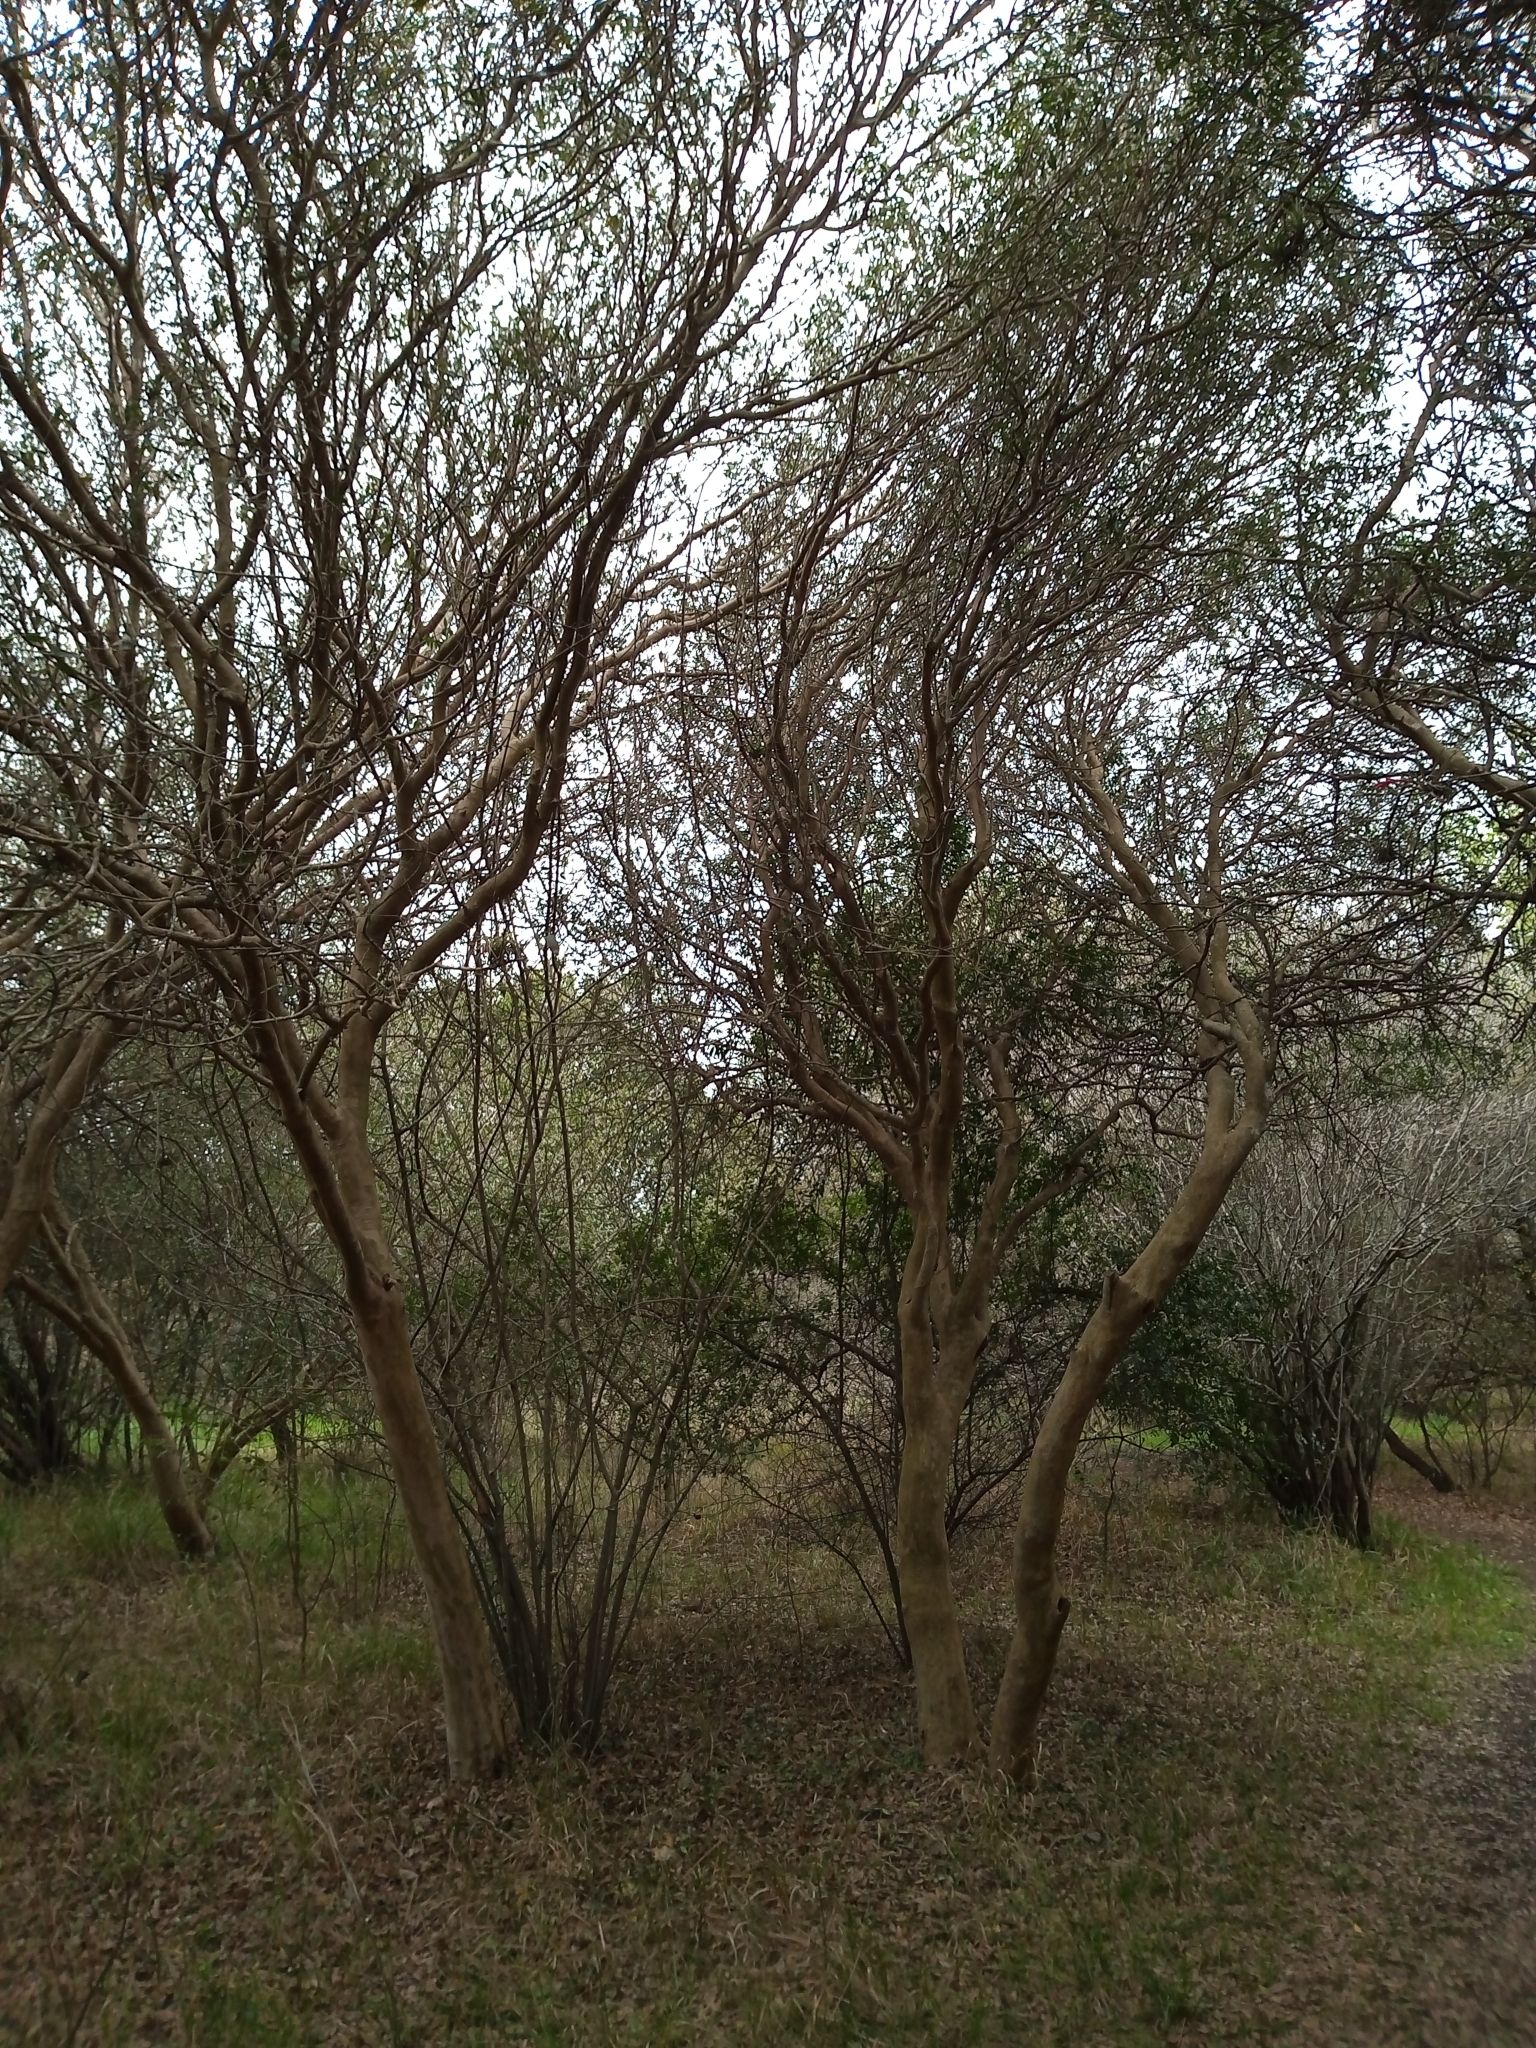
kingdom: Plantae
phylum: Tracheophyta
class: Magnoliopsida
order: Myrtales
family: Myrtaceae
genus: Myrcianthes
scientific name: Myrcianthes cisplatensis
